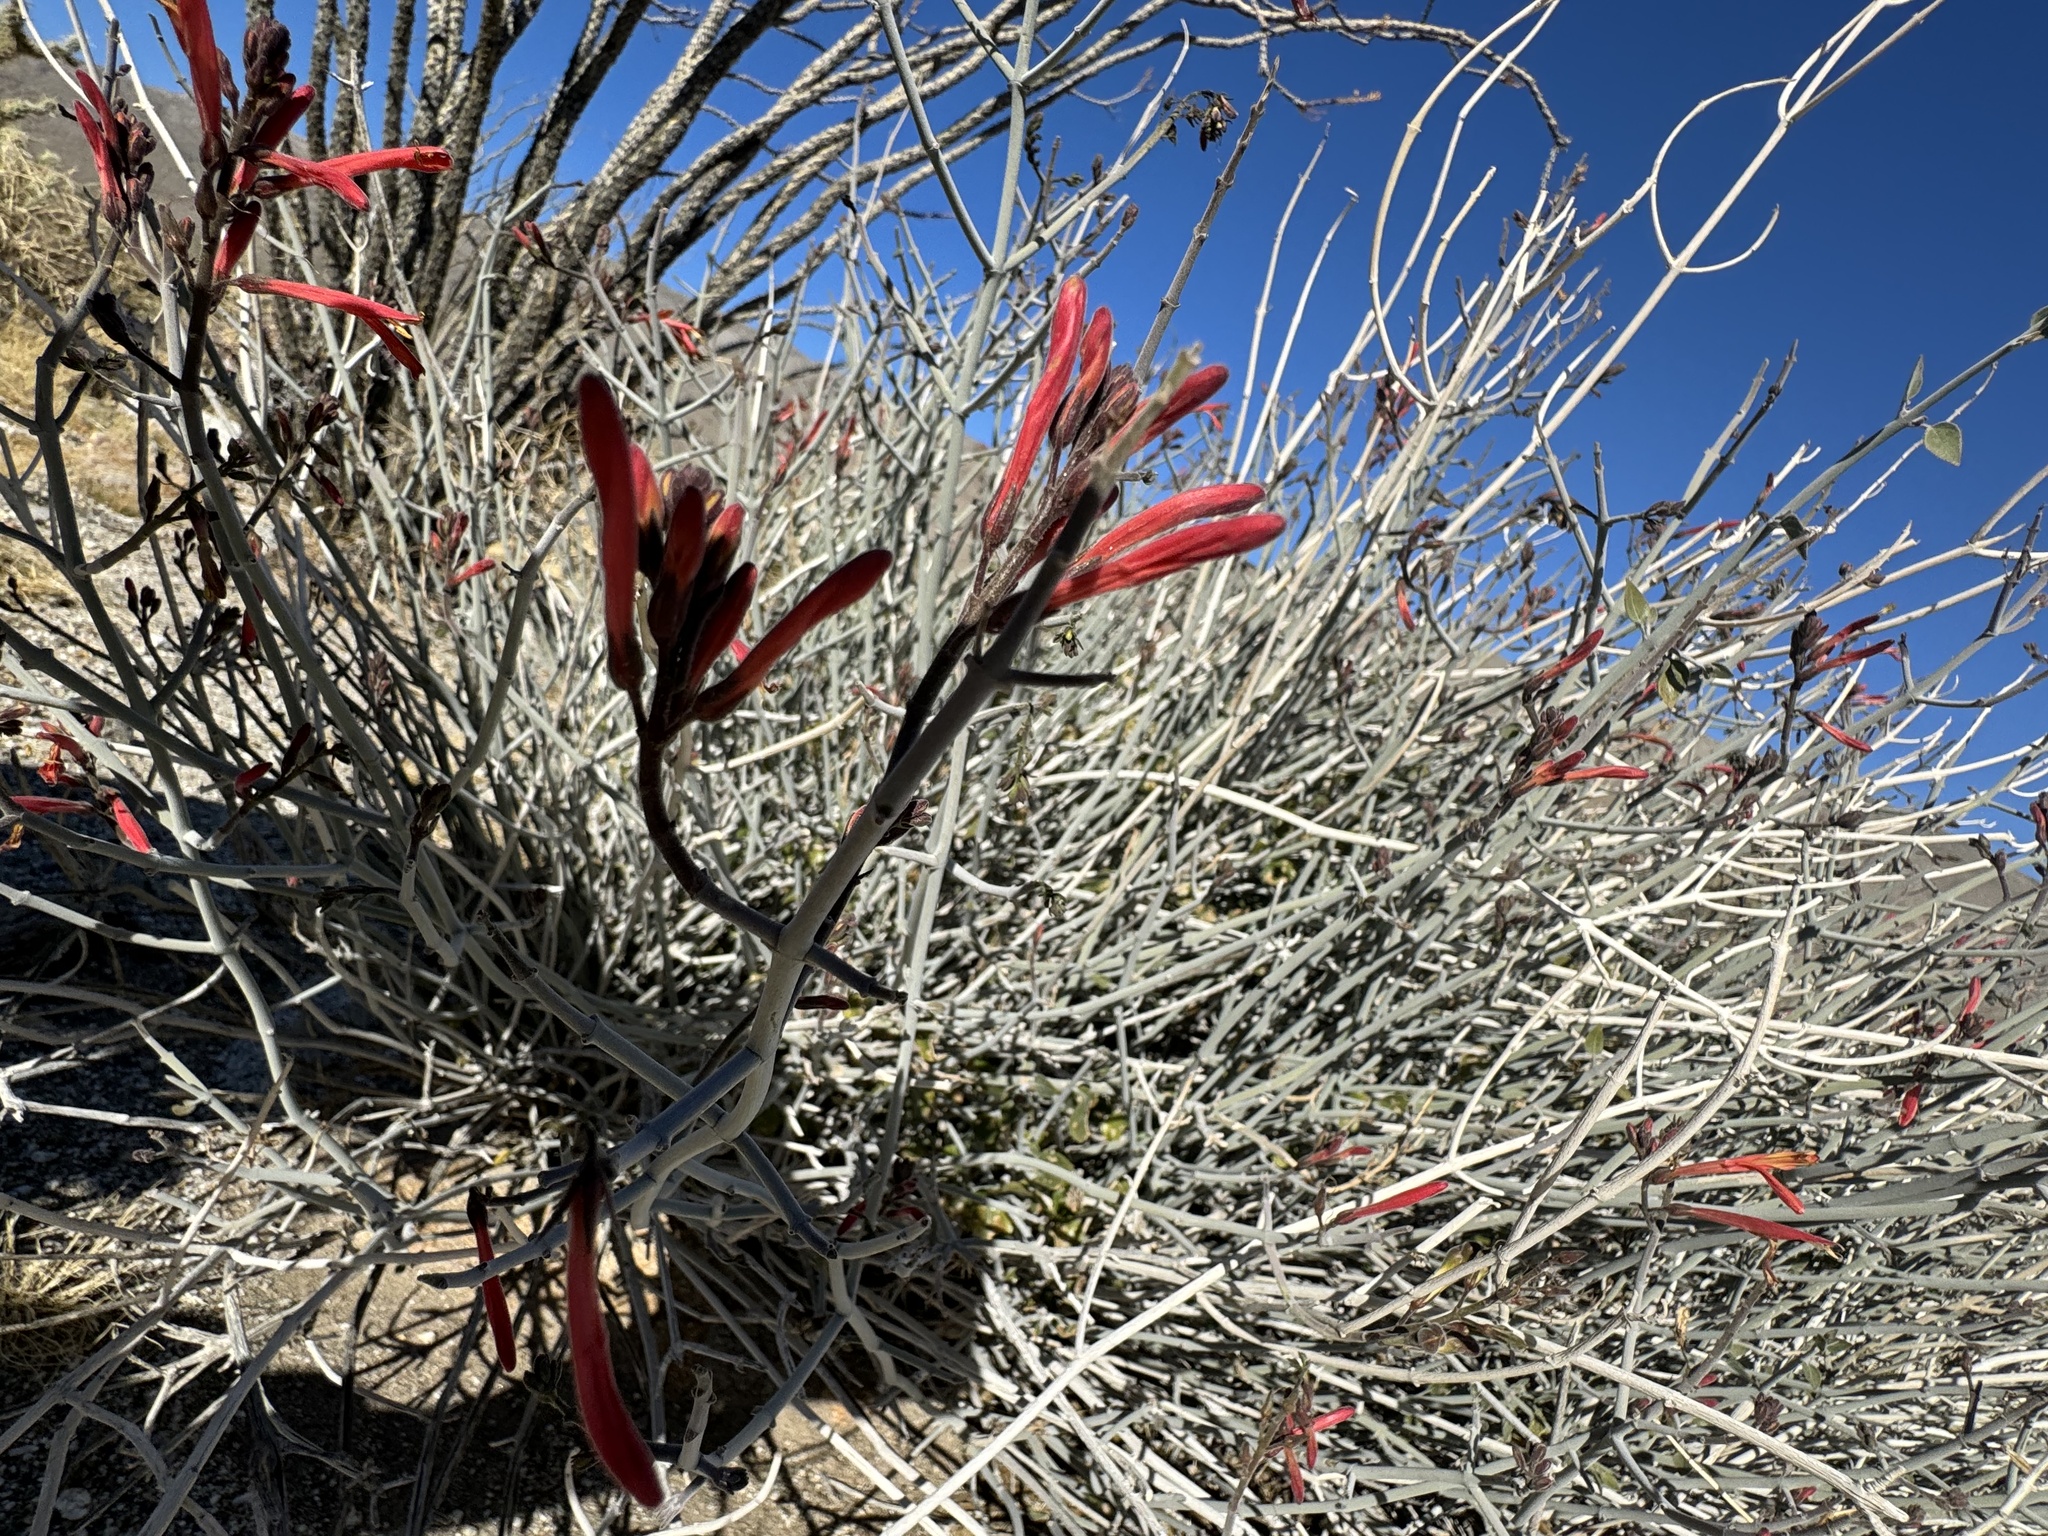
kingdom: Plantae
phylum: Tracheophyta
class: Magnoliopsida
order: Lamiales
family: Acanthaceae
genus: Justicia
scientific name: Justicia californica
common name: Chuparosa-honeysuckle
